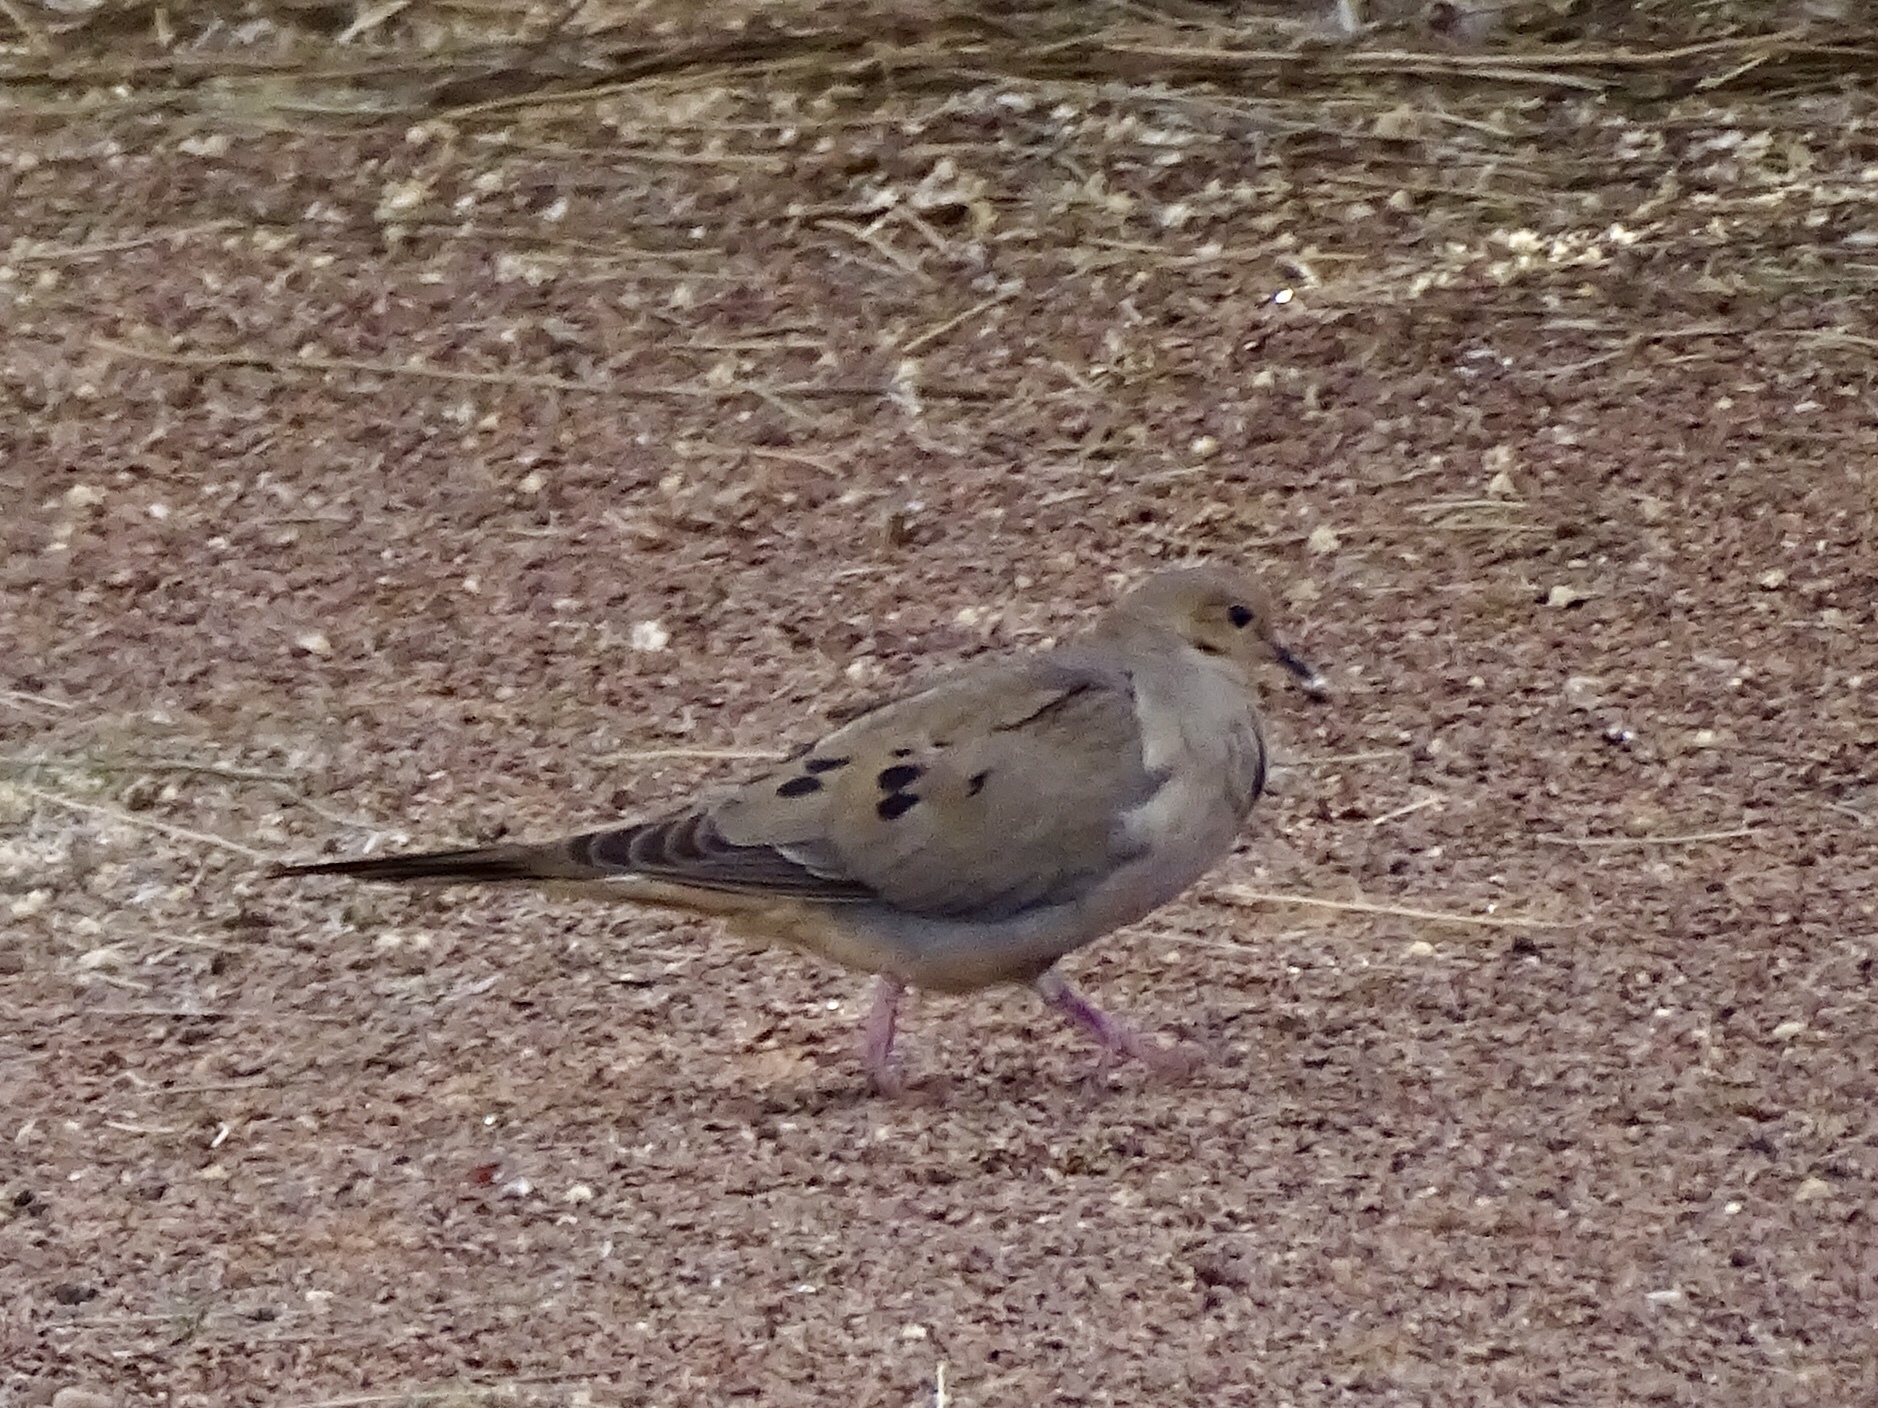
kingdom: Animalia
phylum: Chordata
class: Aves
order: Columbiformes
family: Columbidae
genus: Zenaida
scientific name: Zenaida macroura
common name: Mourning dove
